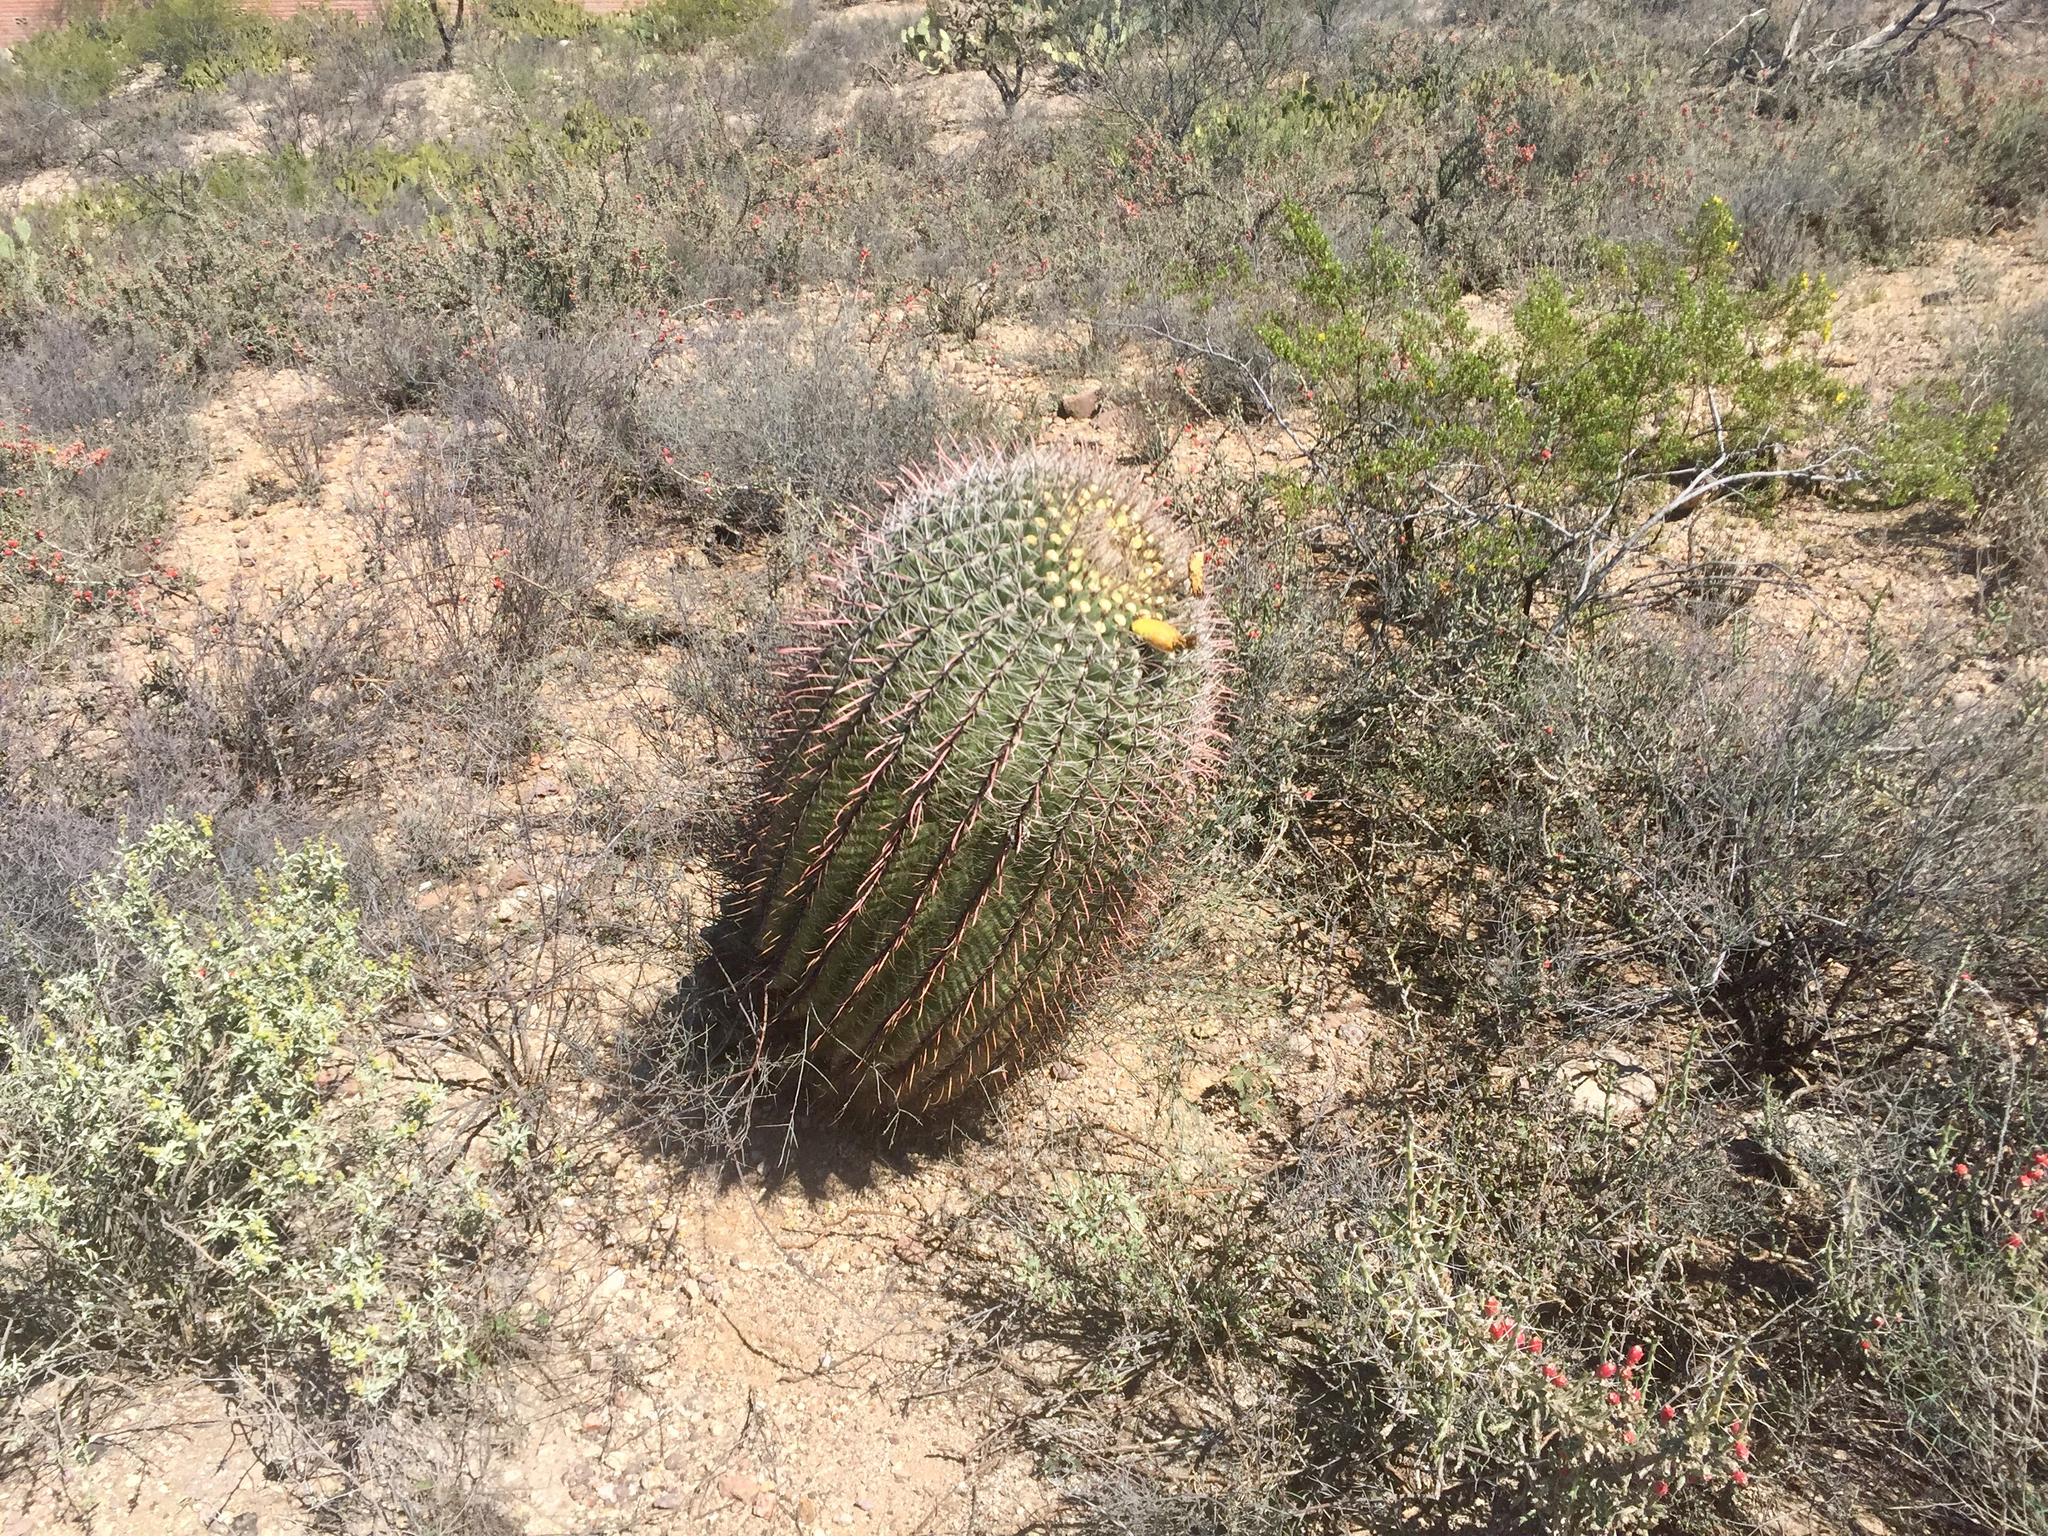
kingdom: Plantae
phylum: Tracheophyta
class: Magnoliopsida
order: Caryophyllales
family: Cactaceae
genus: Ferocactus
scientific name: Ferocactus wislizeni
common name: Candy barrel cactus
